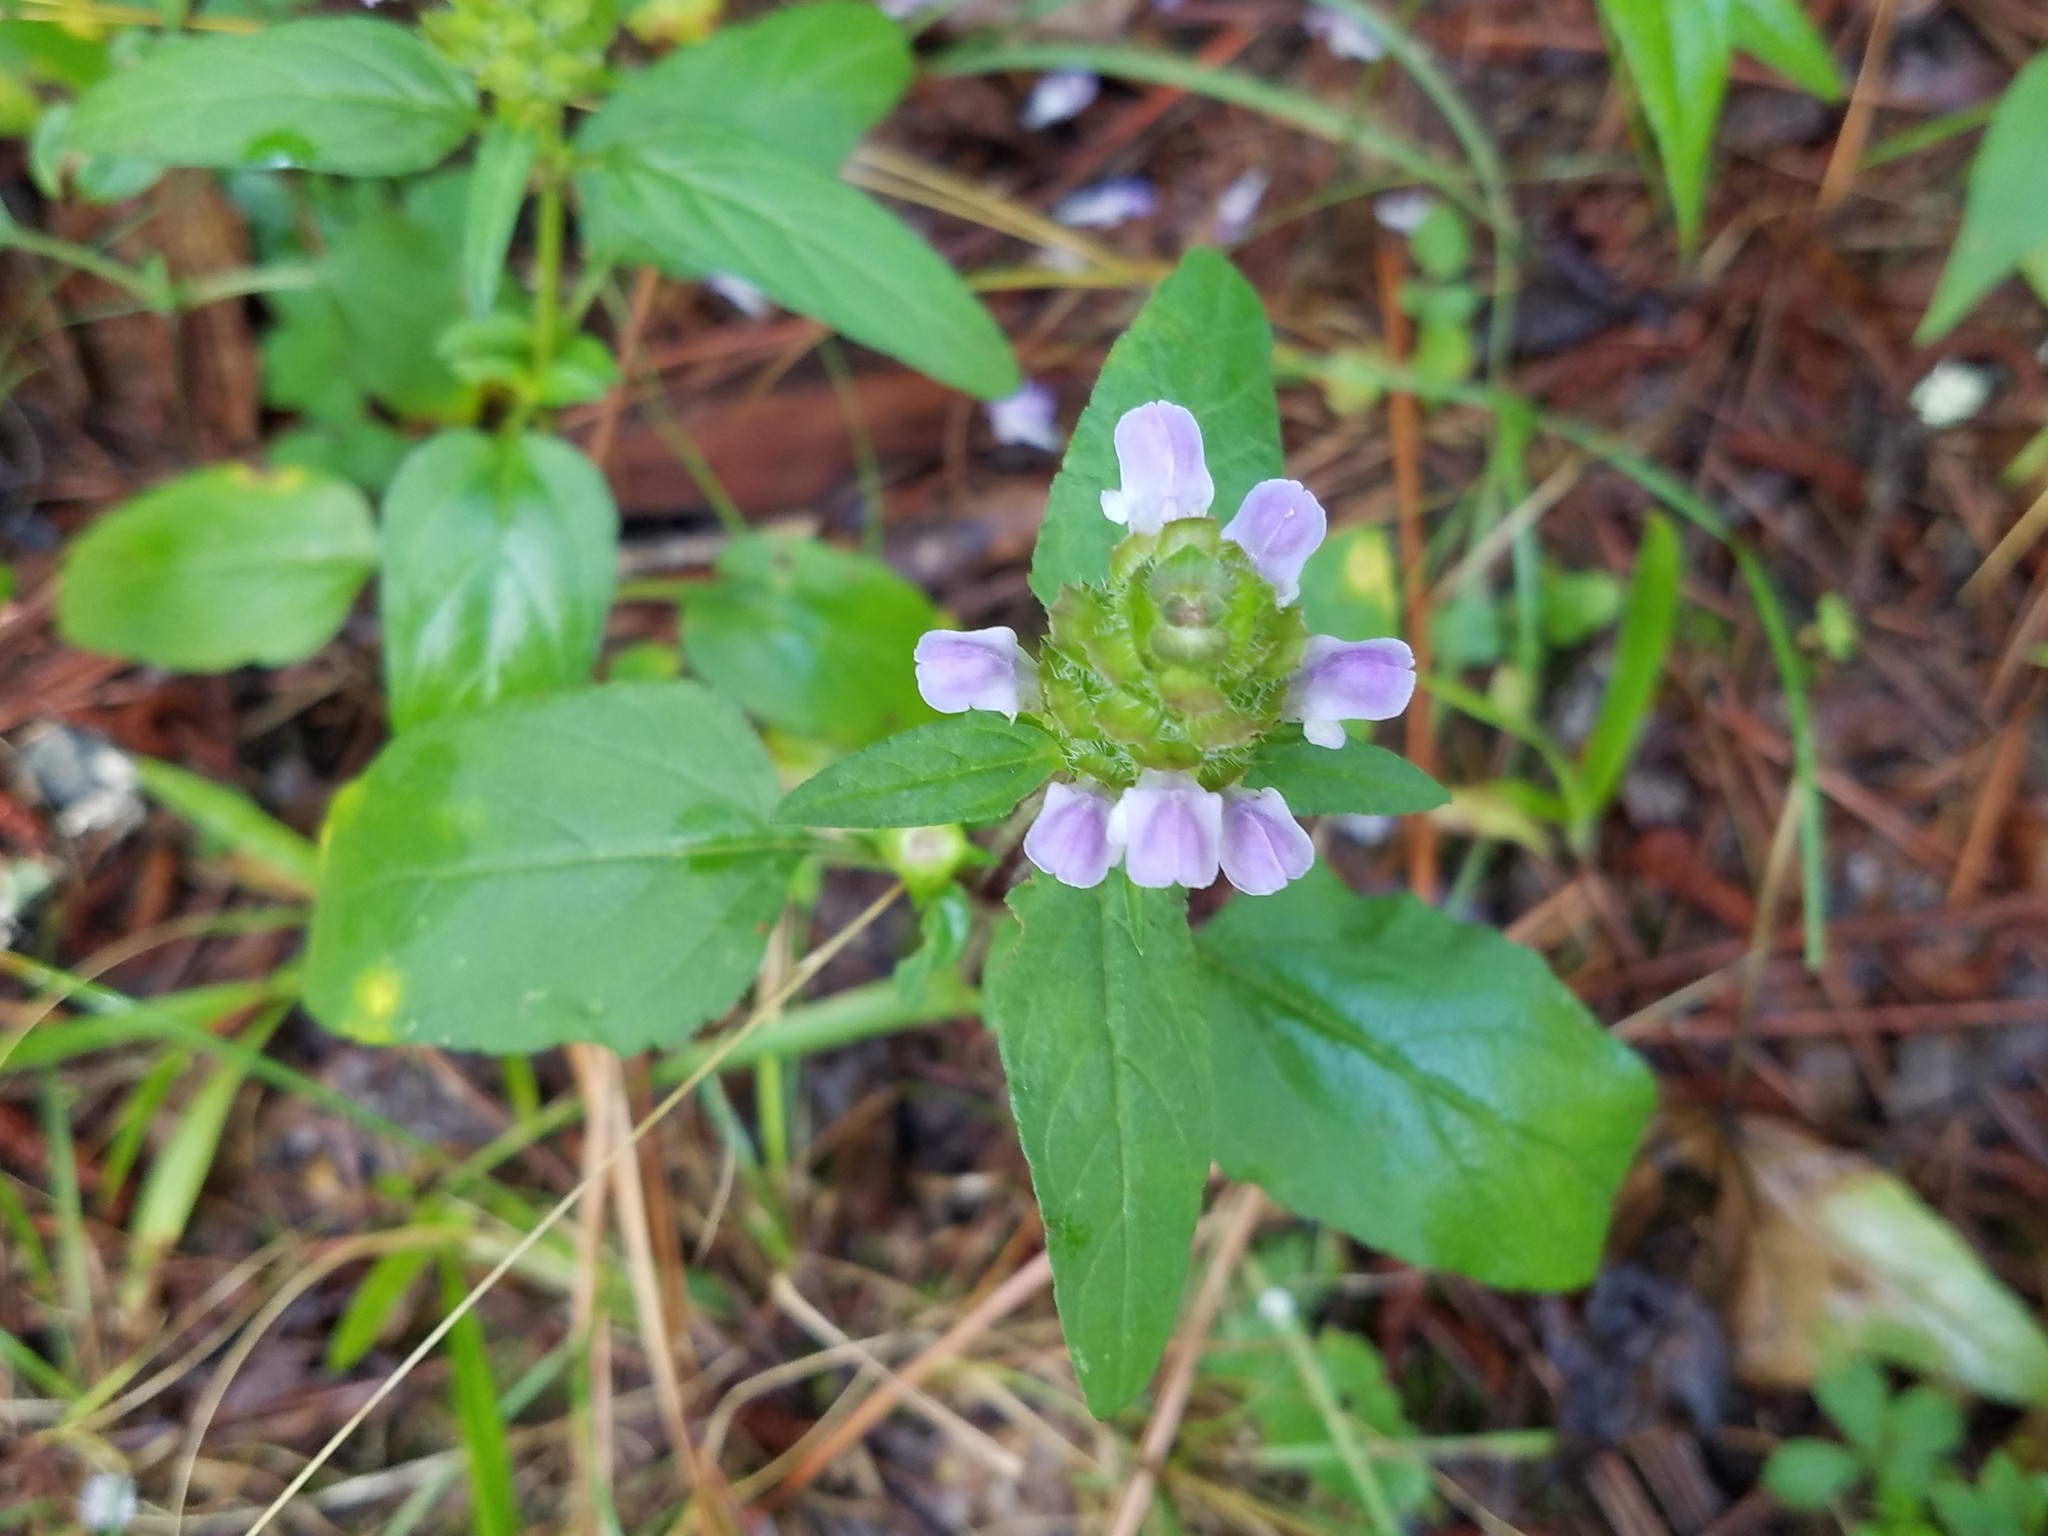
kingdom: Plantae
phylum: Tracheophyta
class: Magnoliopsida
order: Lamiales
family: Lamiaceae
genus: Prunella
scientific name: Prunella vulgaris
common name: Heal-all
